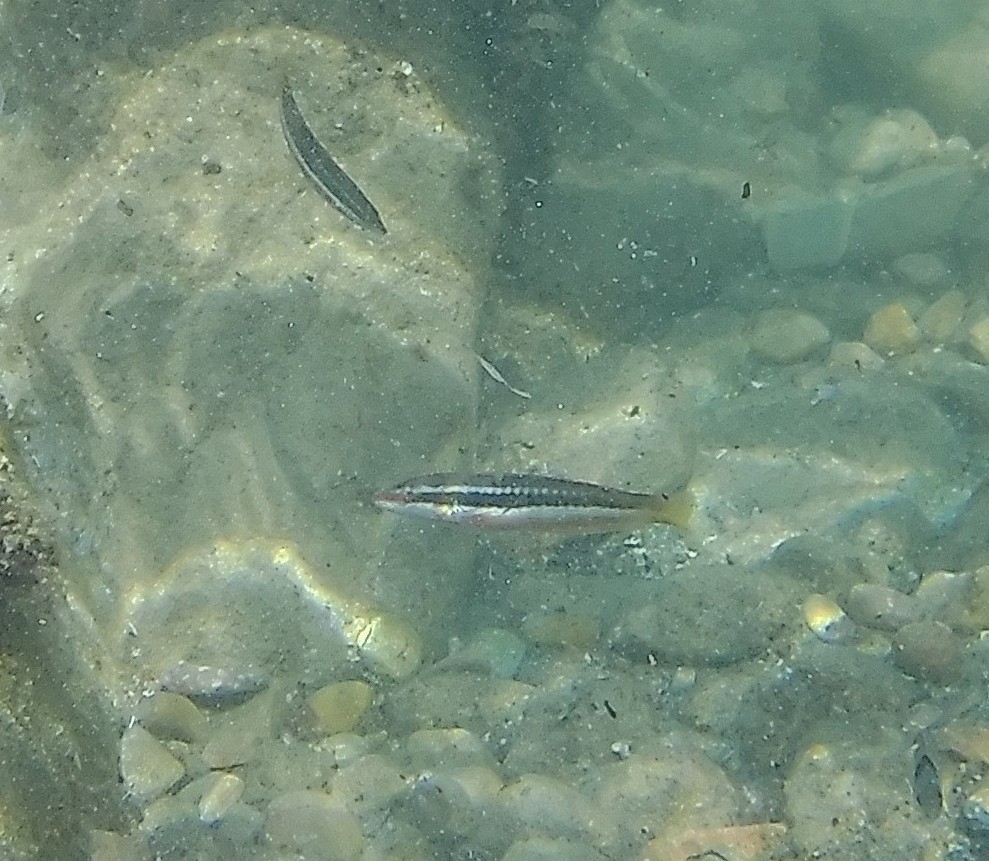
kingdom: Animalia
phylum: Chordata
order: Perciformes
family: Labridae
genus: Coris
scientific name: Coris julis
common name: Rainbow wrasse
